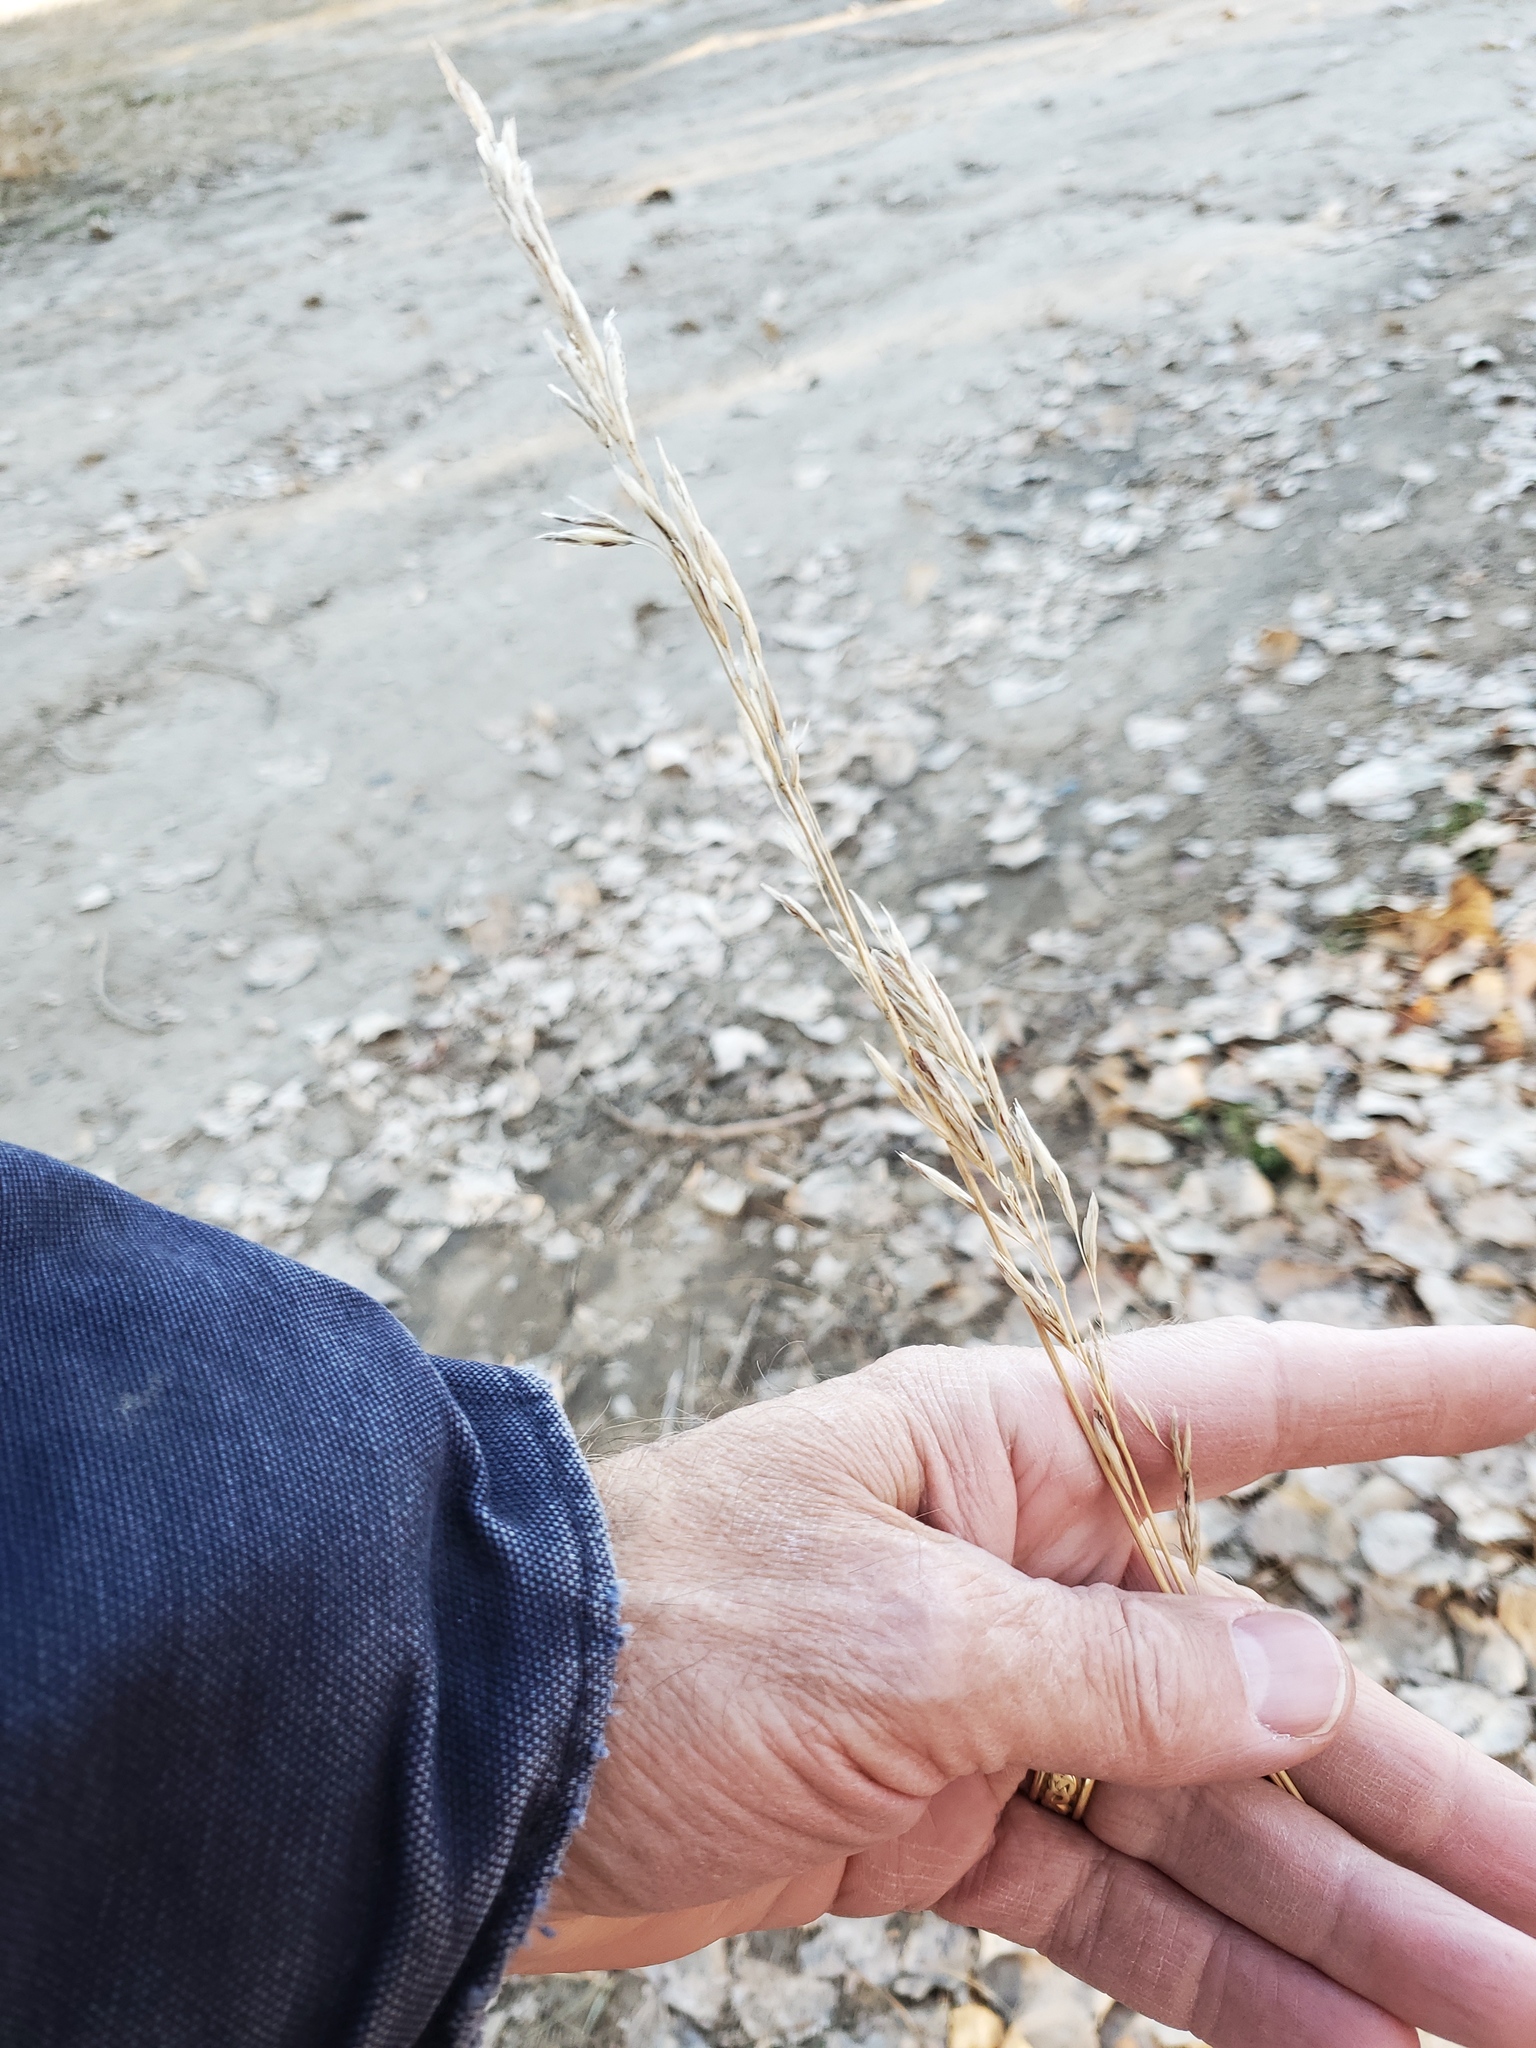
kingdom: Plantae
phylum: Tracheophyta
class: Liliopsida
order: Poales
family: Poaceae
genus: Bromus
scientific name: Bromus inermis
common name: Smooth brome
